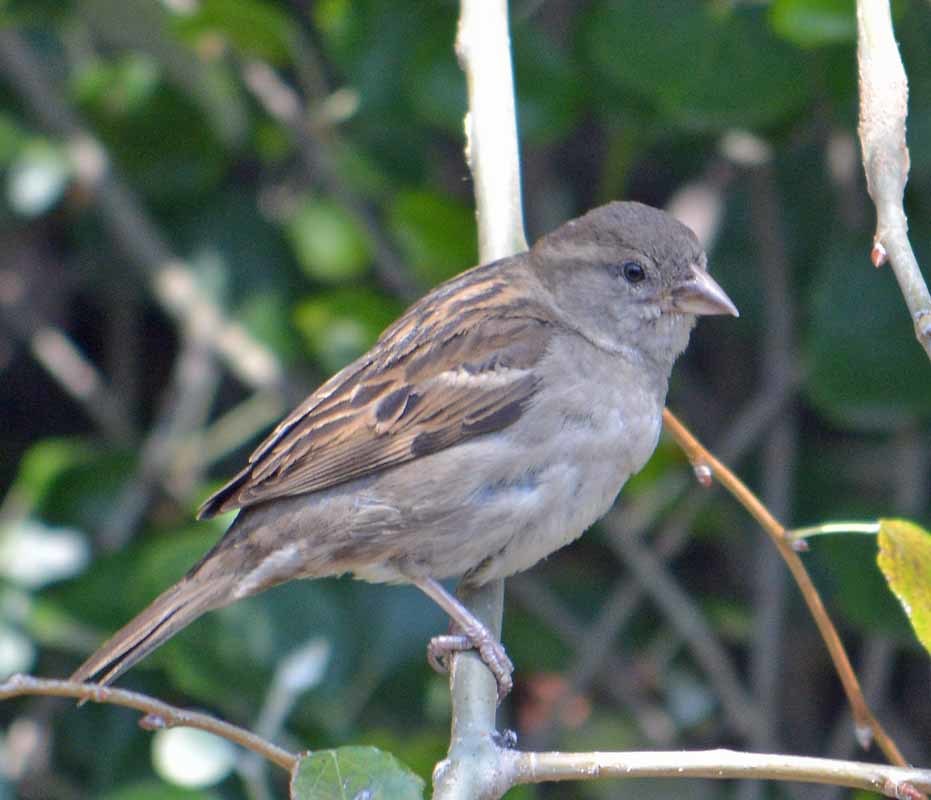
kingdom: Animalia
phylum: Chordata
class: Aves
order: Passeriformes
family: Passeridae
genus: Passer
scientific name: Passer domesticus
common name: House sparrow
